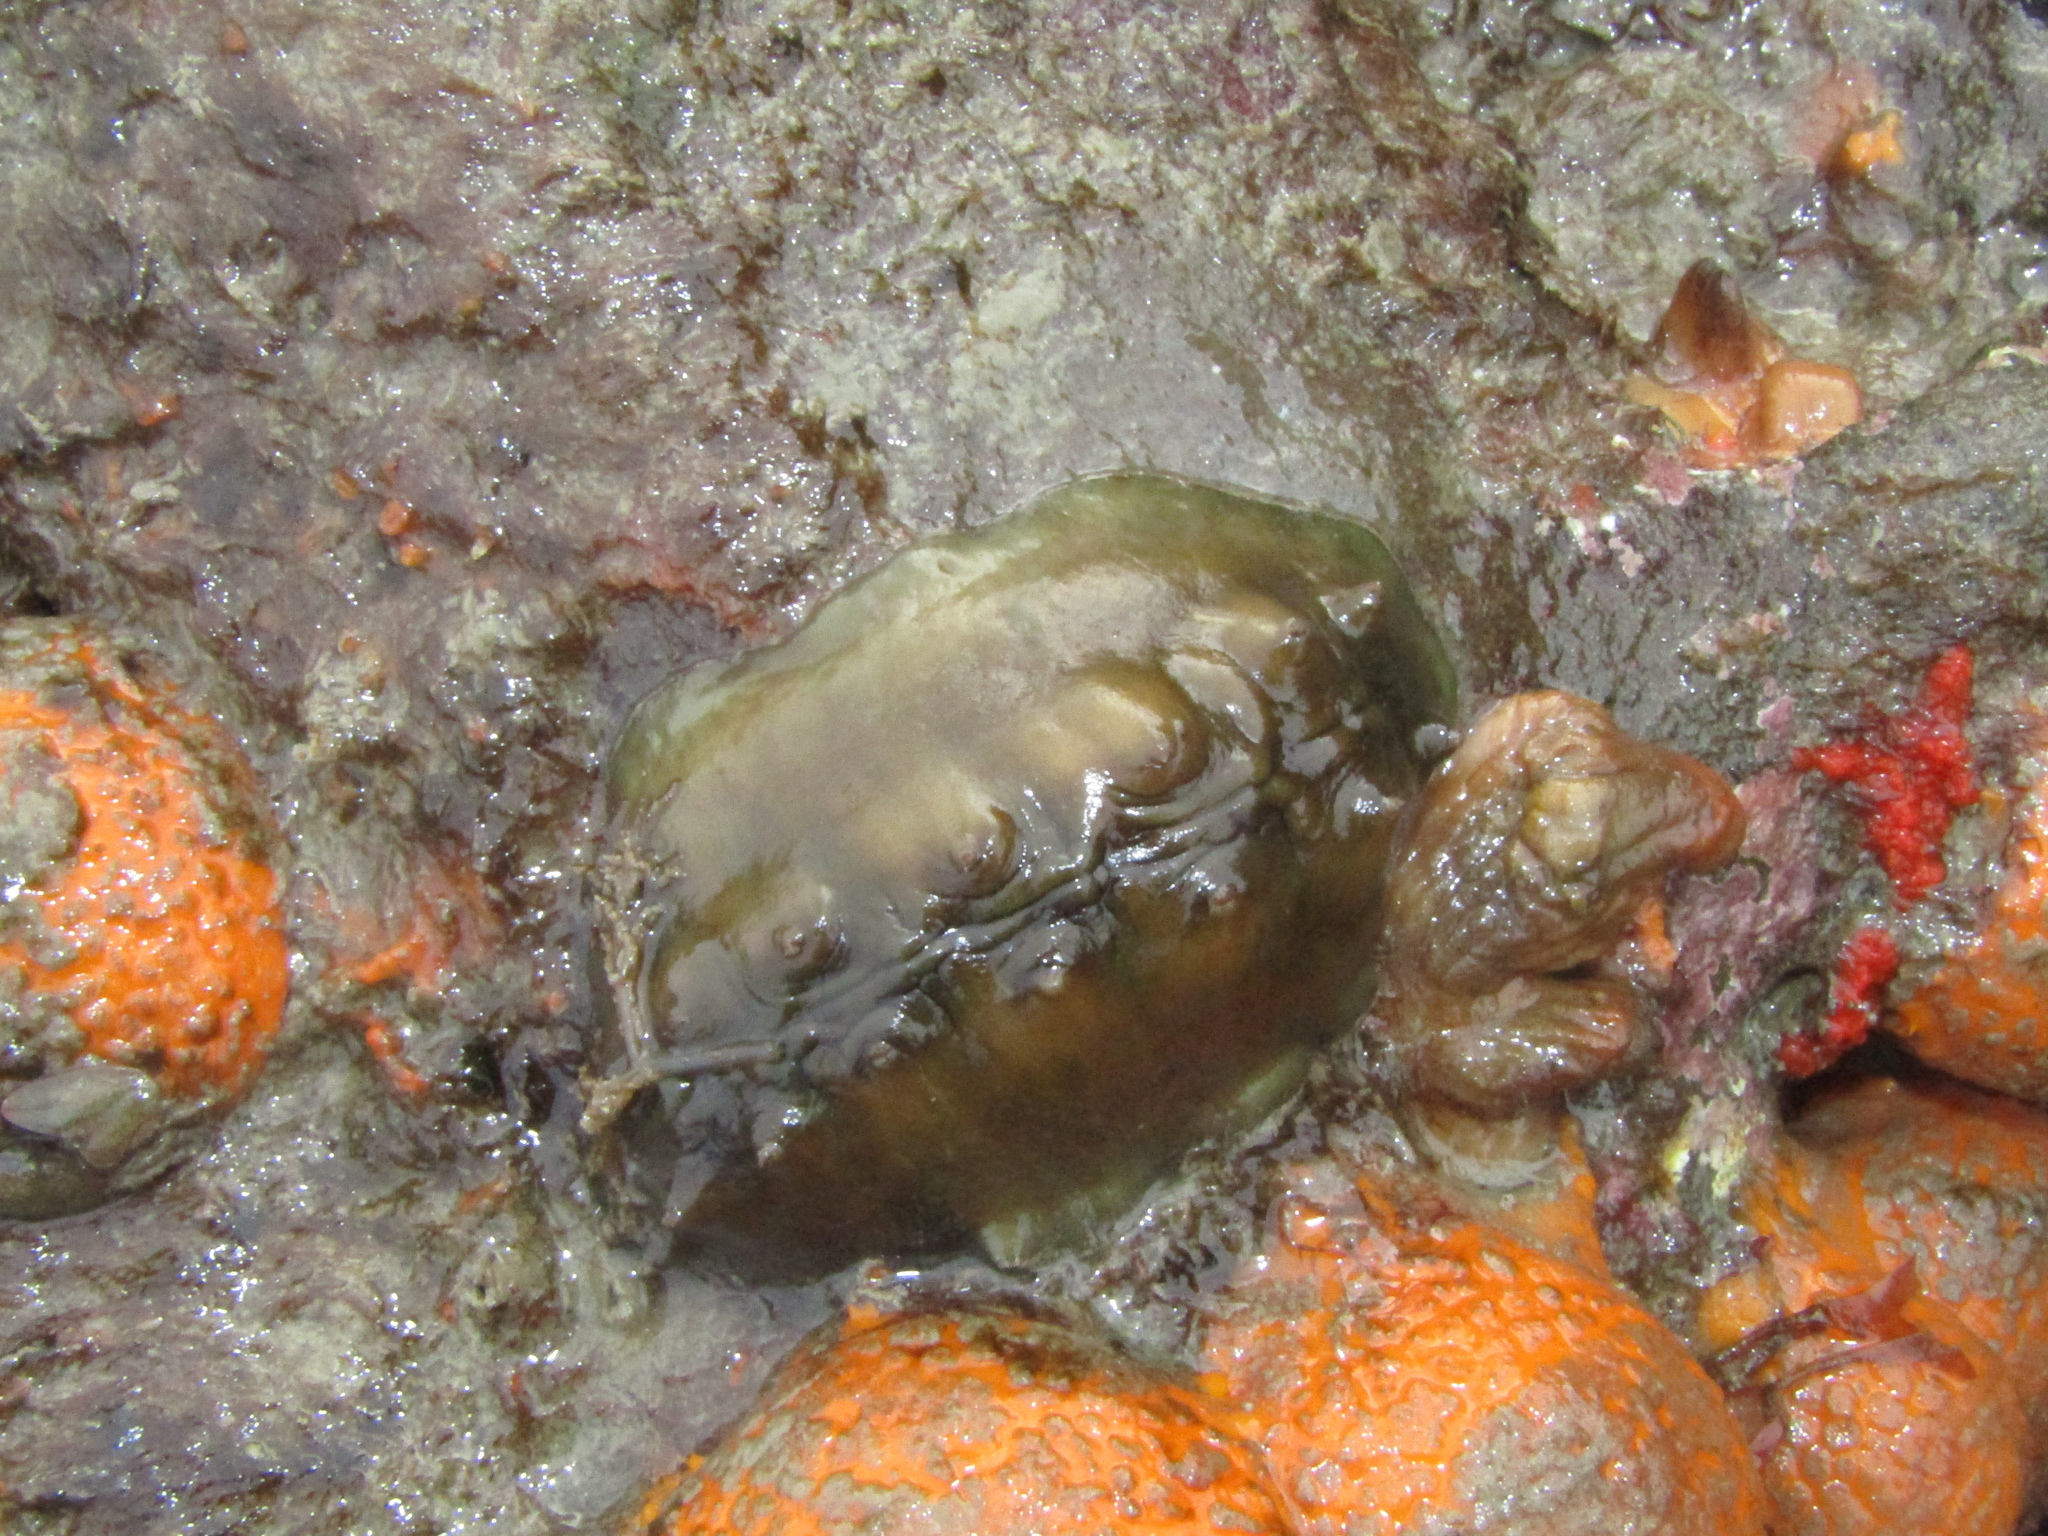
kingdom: Animalia
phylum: Mollusca
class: Polyplacophora
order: Chitonida
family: Acanthochitonidae
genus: Cryptoconchus
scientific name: Cryptoconchus porosus
